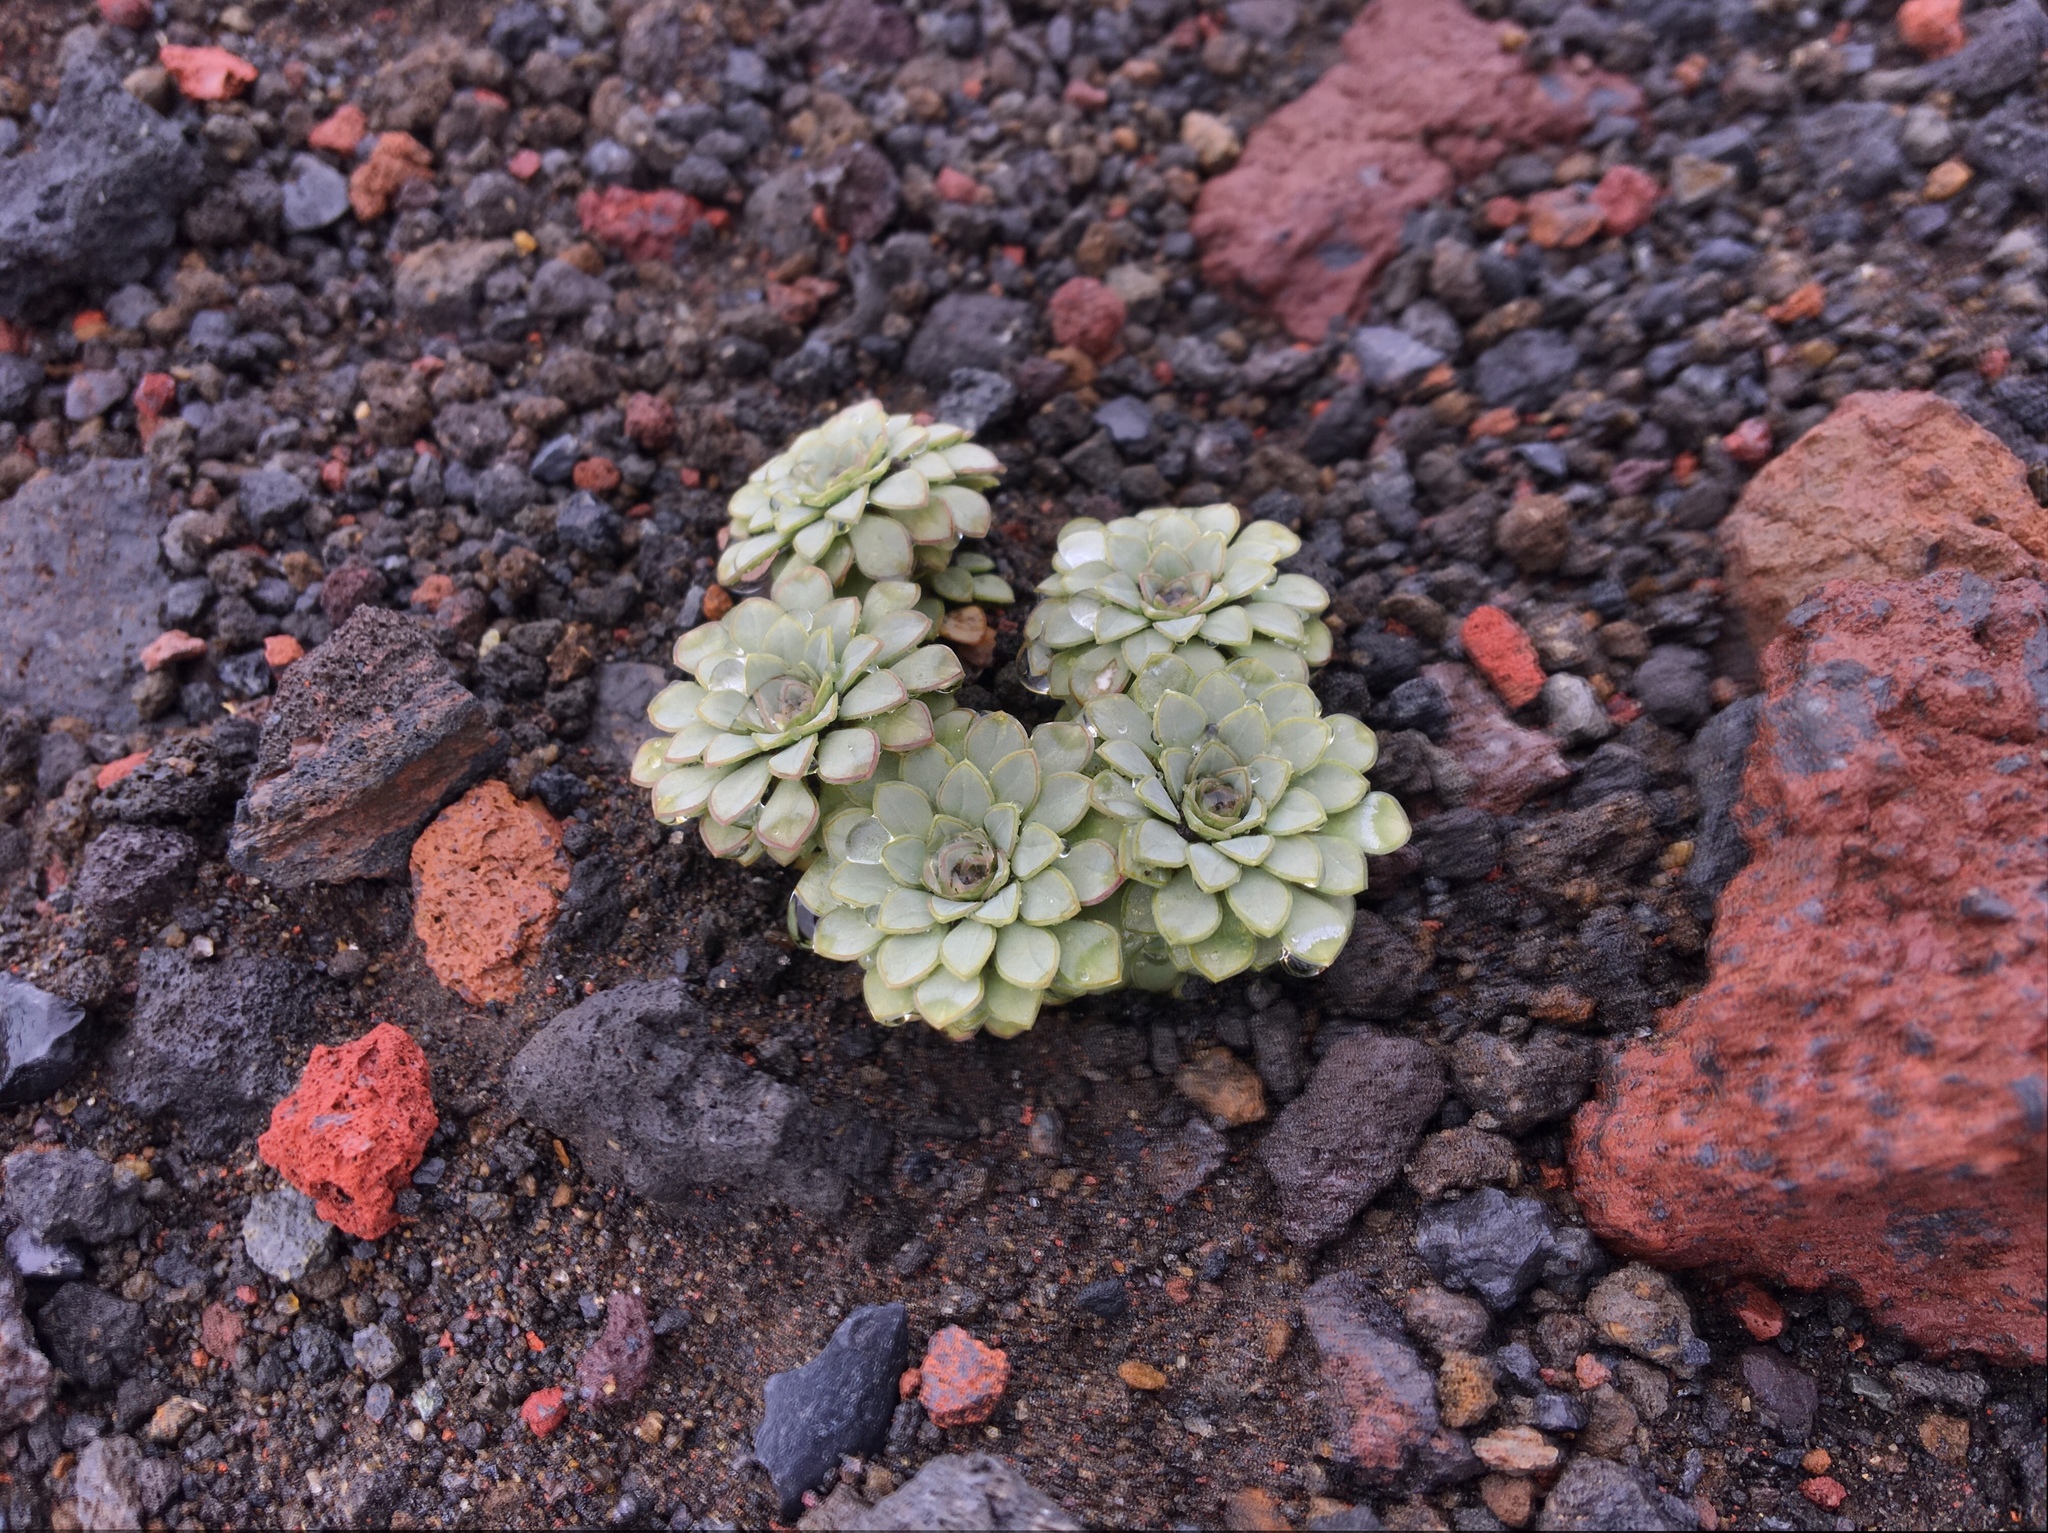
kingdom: Plantae
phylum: Tracheophyta
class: Magnoliopsida
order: Malpighiales
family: Violaceae
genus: Viola
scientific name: Viola cotyledon
